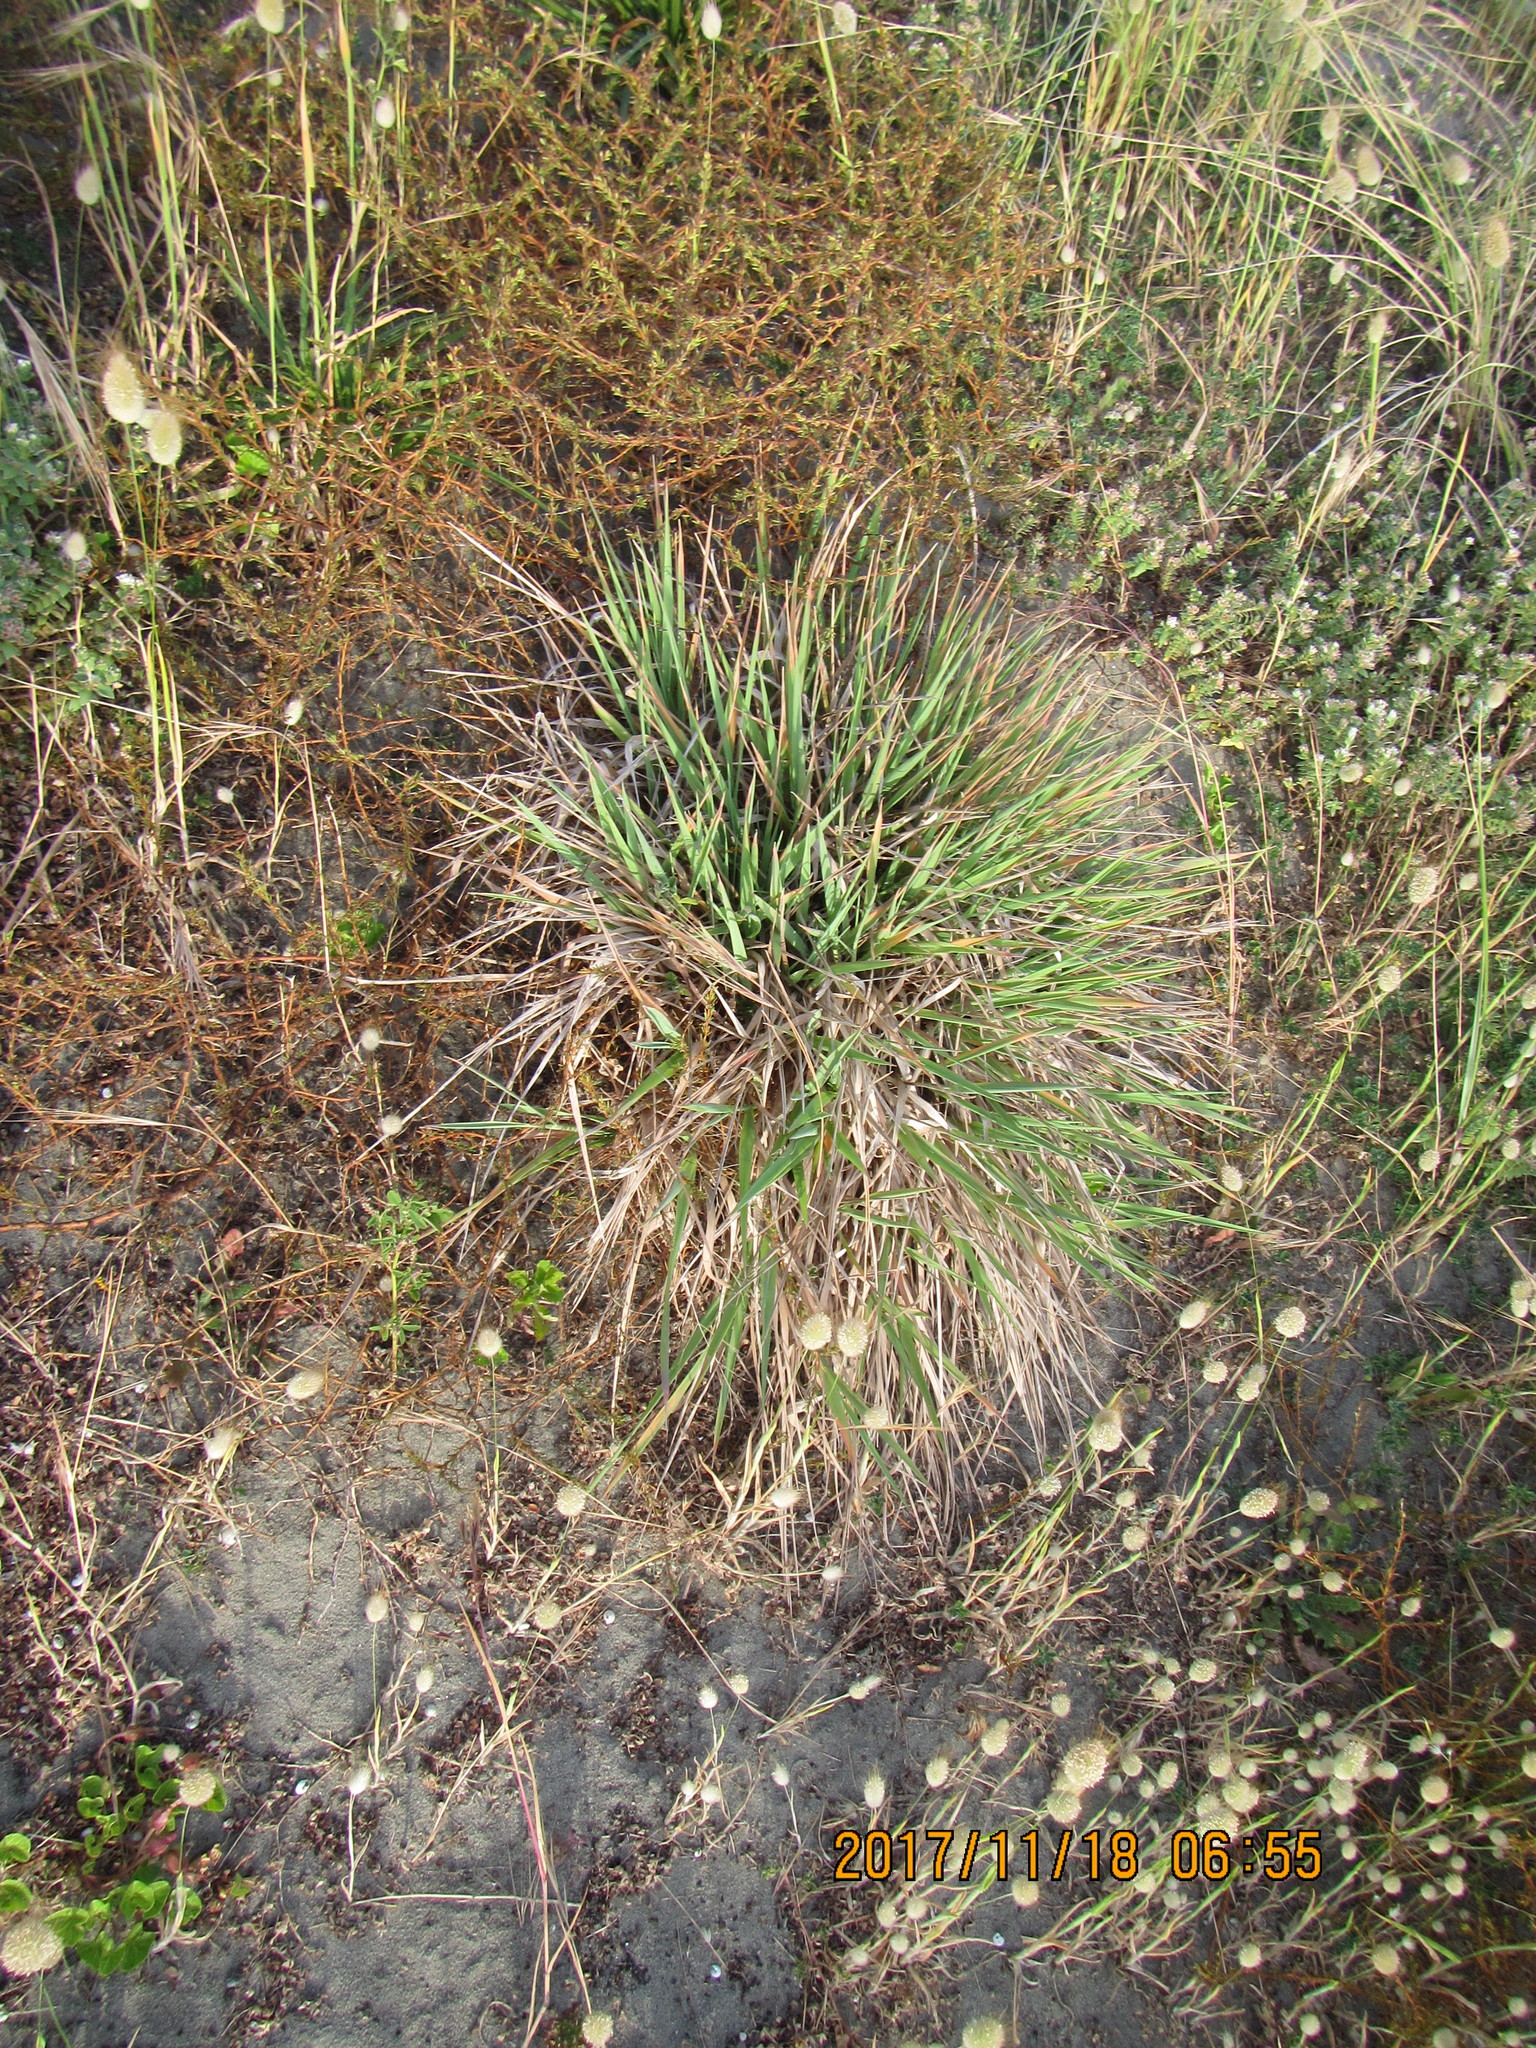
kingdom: Plantae
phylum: Tracheophyta
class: Liliopsida
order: Poales
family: Poaceae
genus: Lachnagrostis
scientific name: Lachnagrostis billardierei
